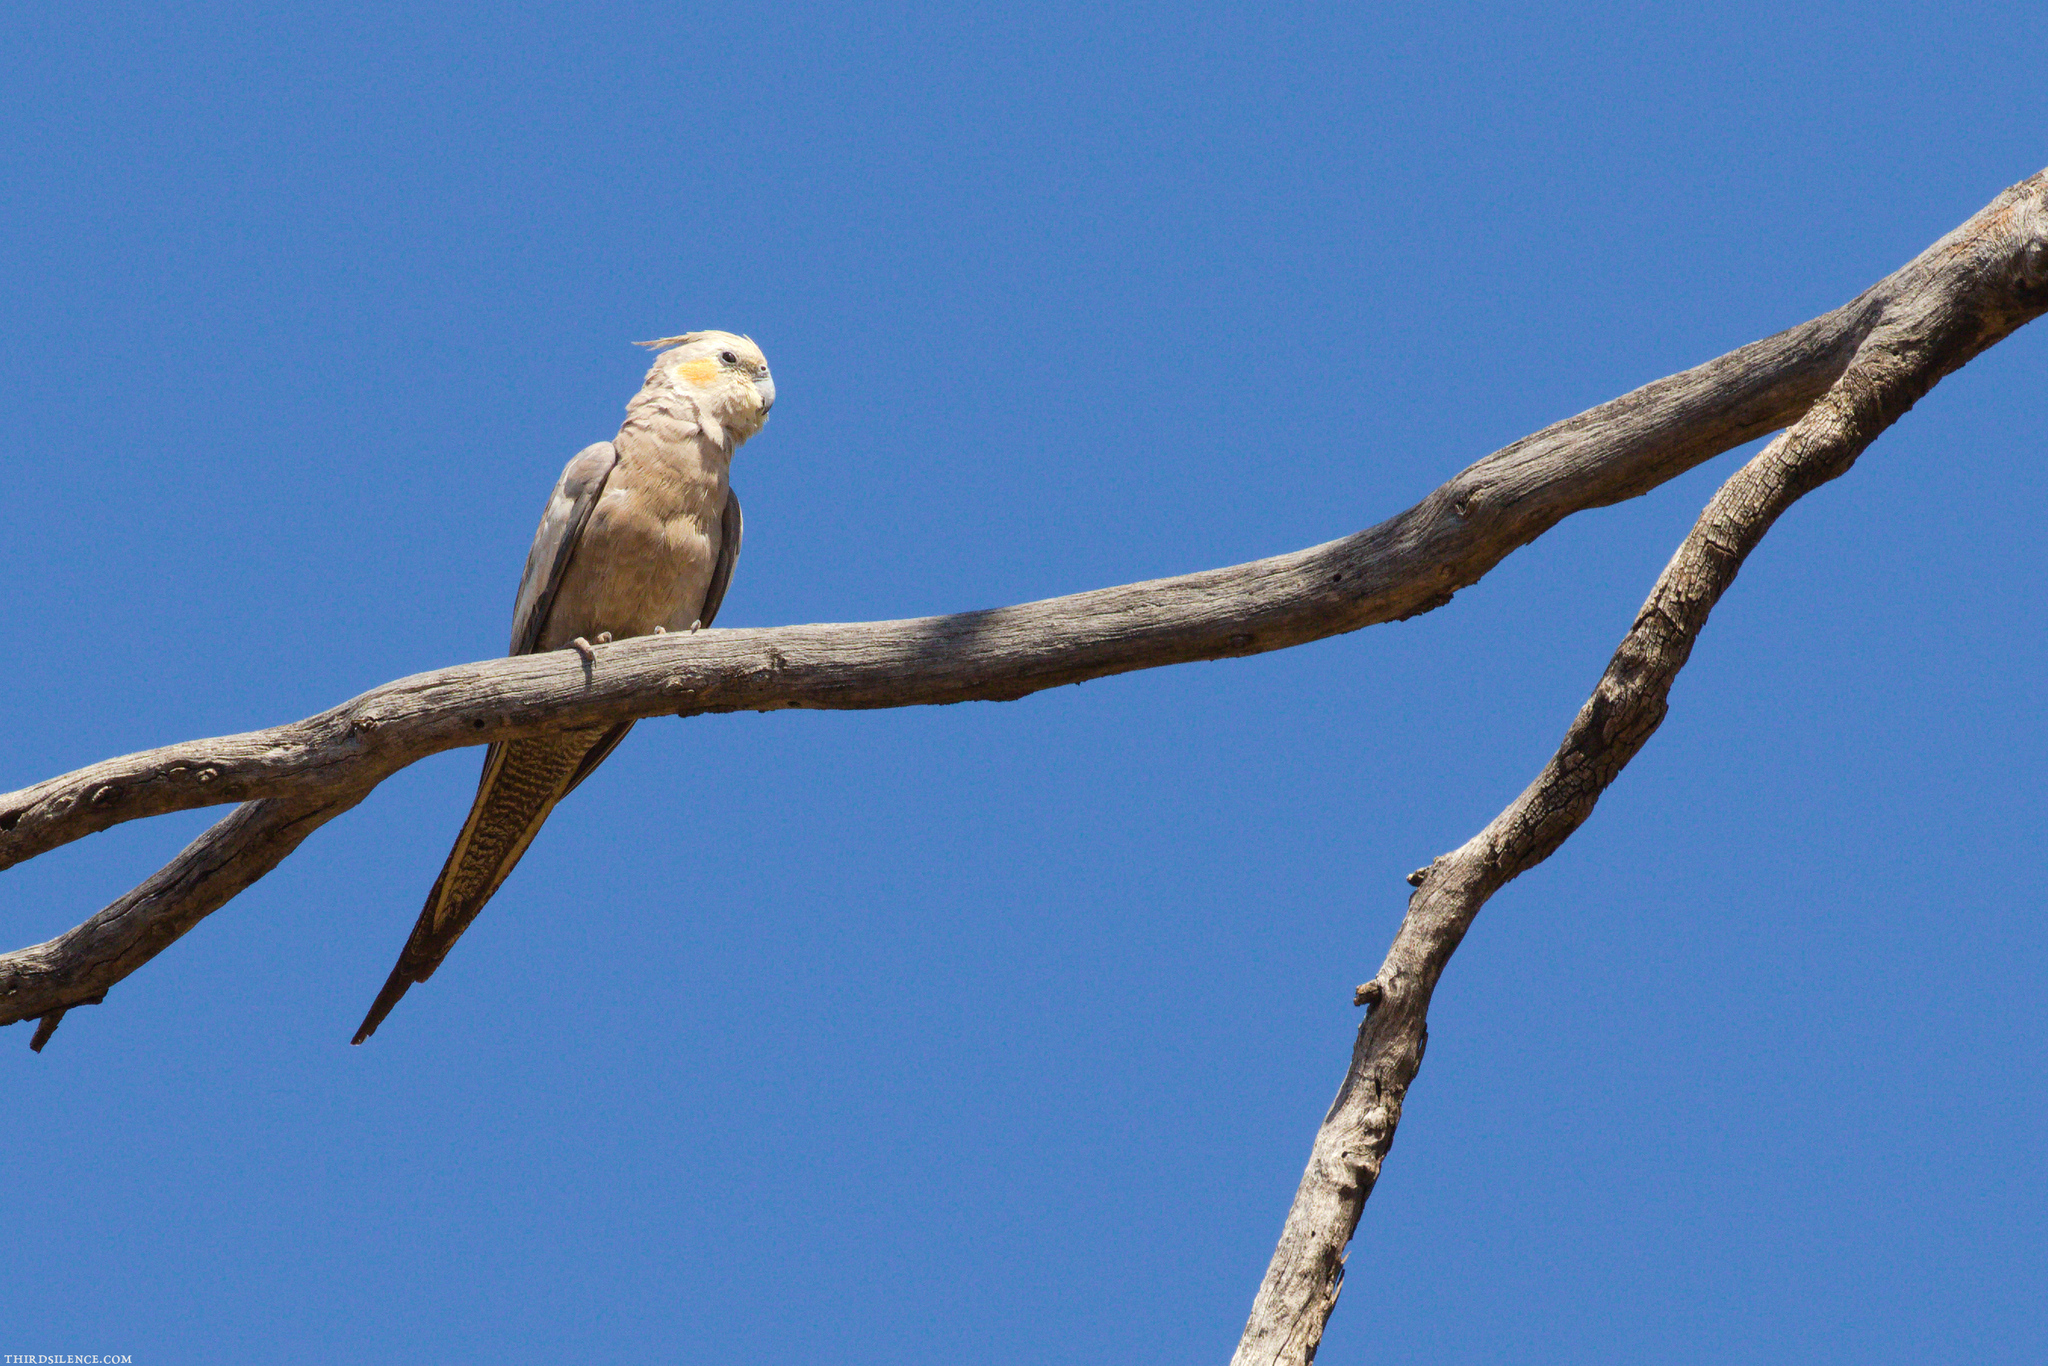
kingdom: Animalia
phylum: Chordata
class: Aves
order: Psittaciformes
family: Psittacidae
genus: Nymphicus
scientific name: Nymphicus hollandicus
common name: Cockatiel
